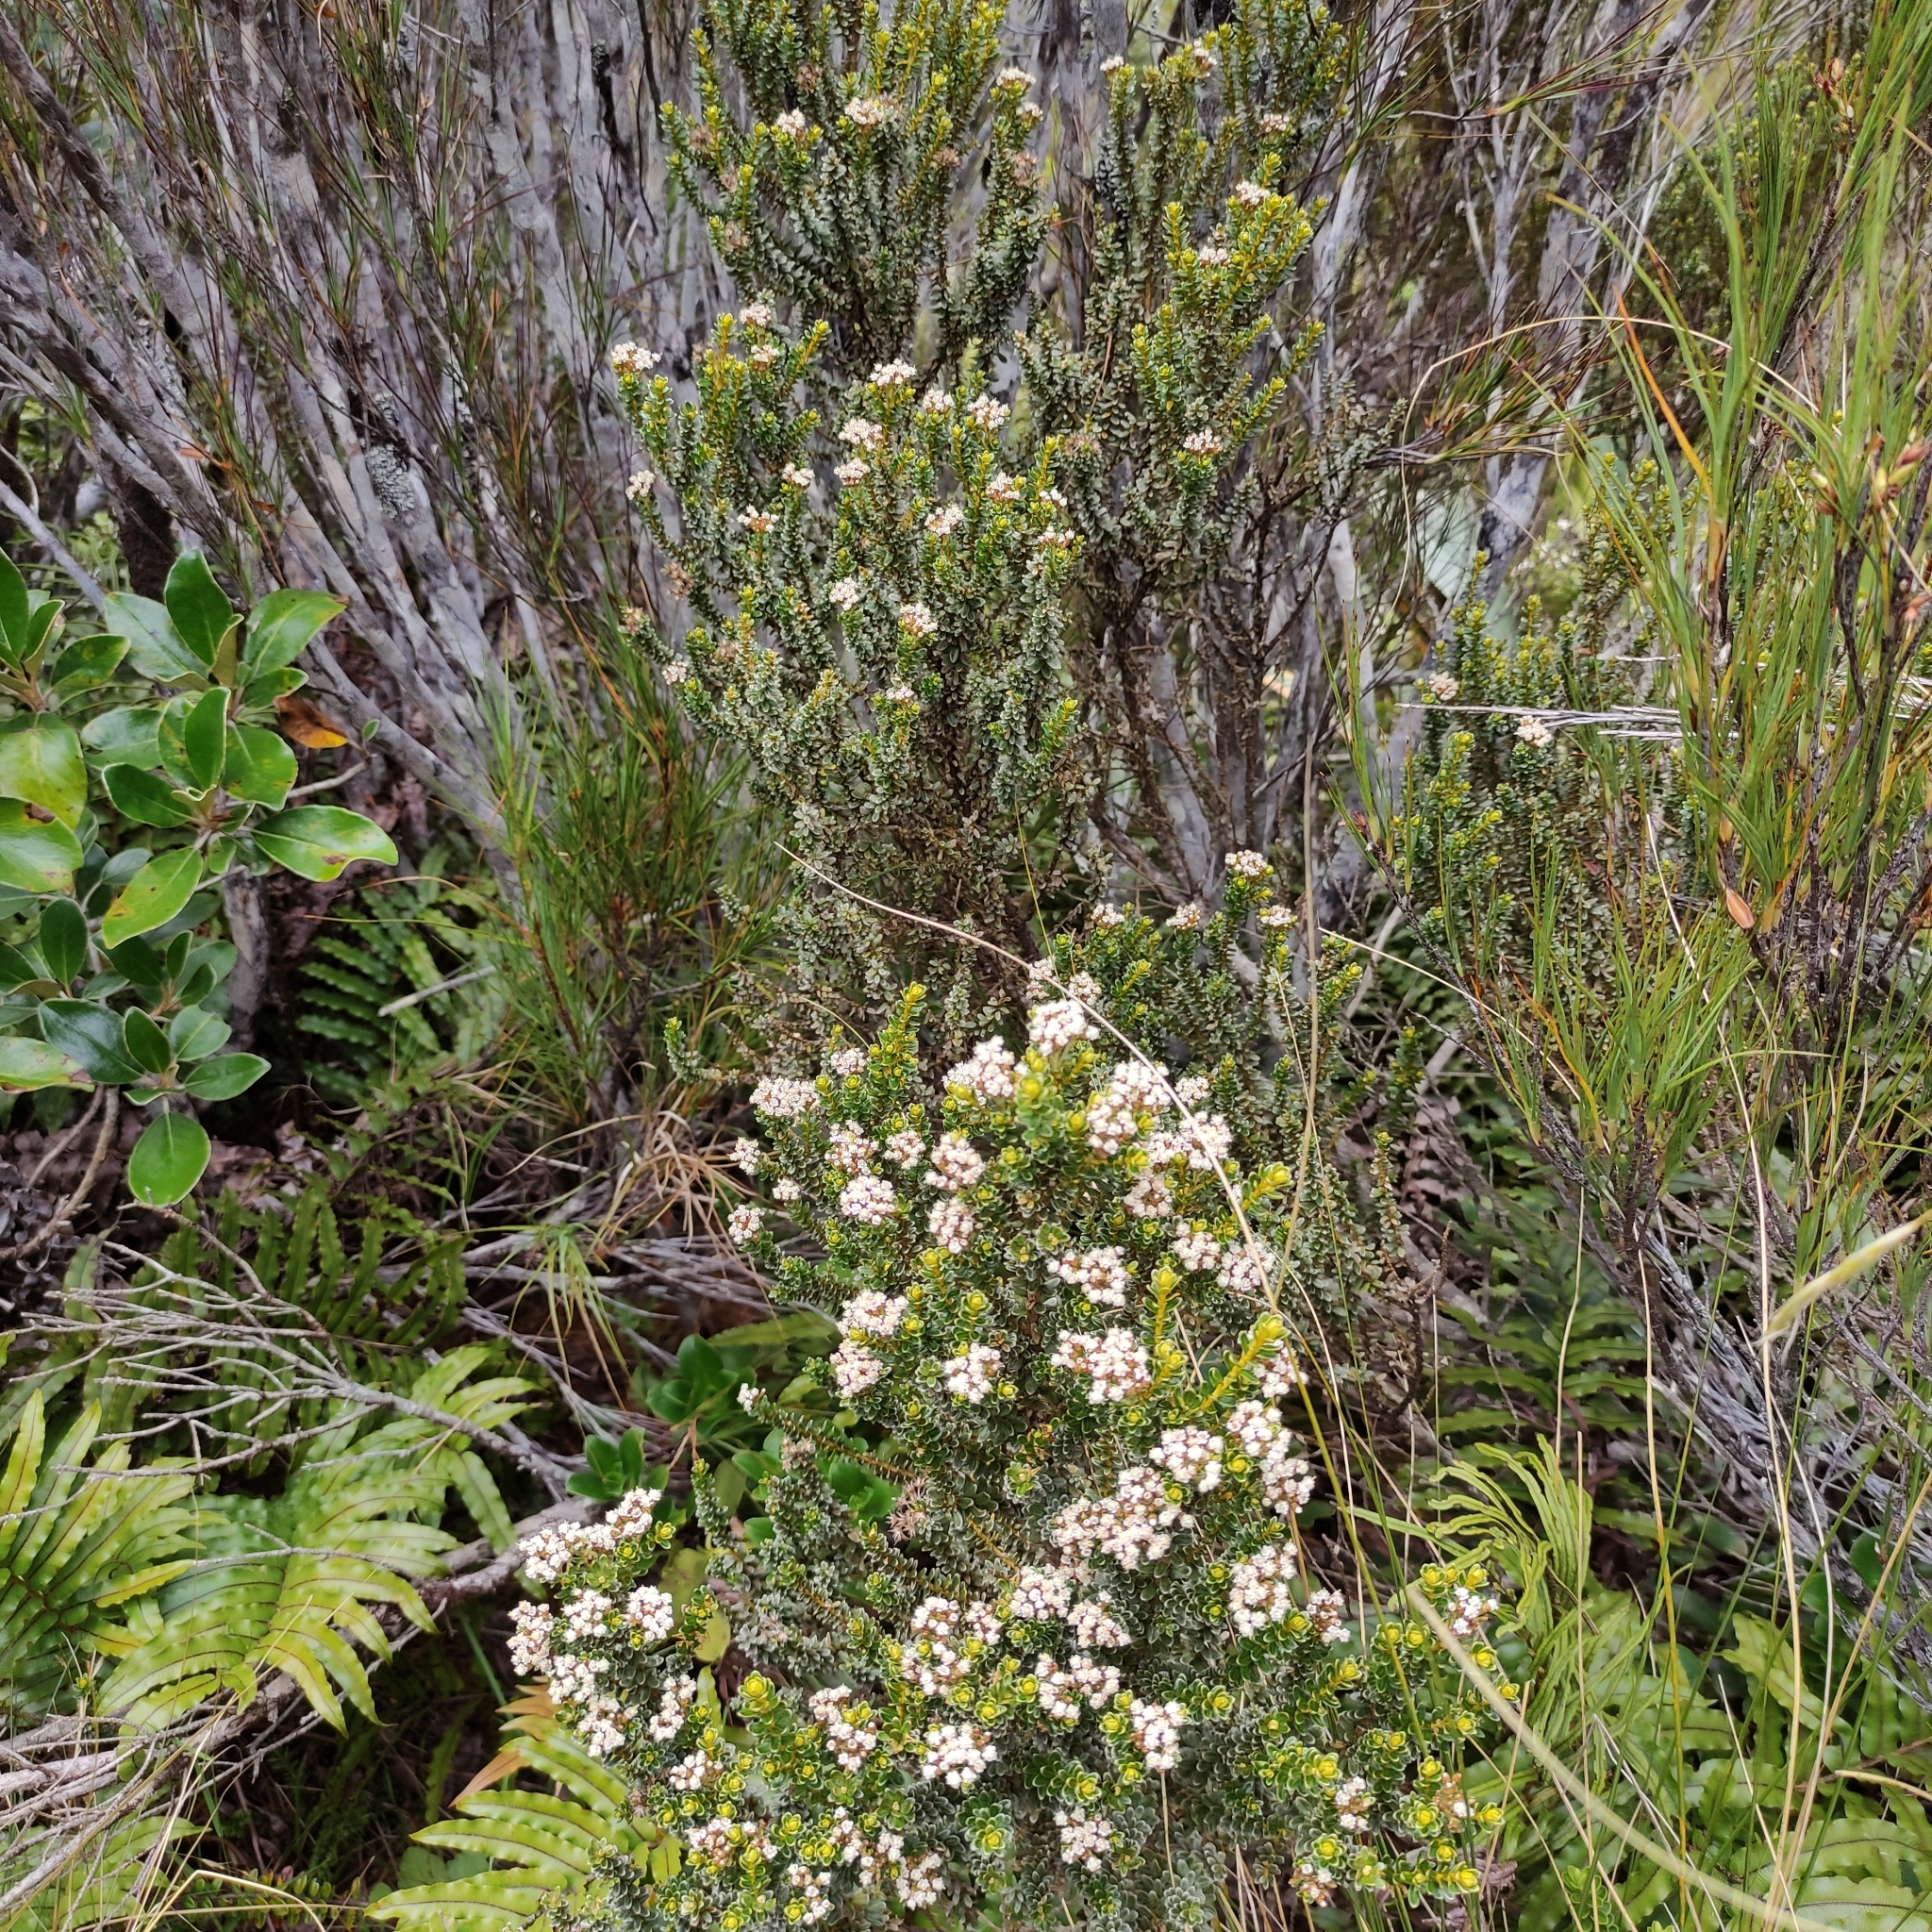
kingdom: Plantae
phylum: Tracheophyta
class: Magnoliopsida
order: Asterales
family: Asteraceae
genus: Ozothamnus
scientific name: Ozothamnus leptophyllus
